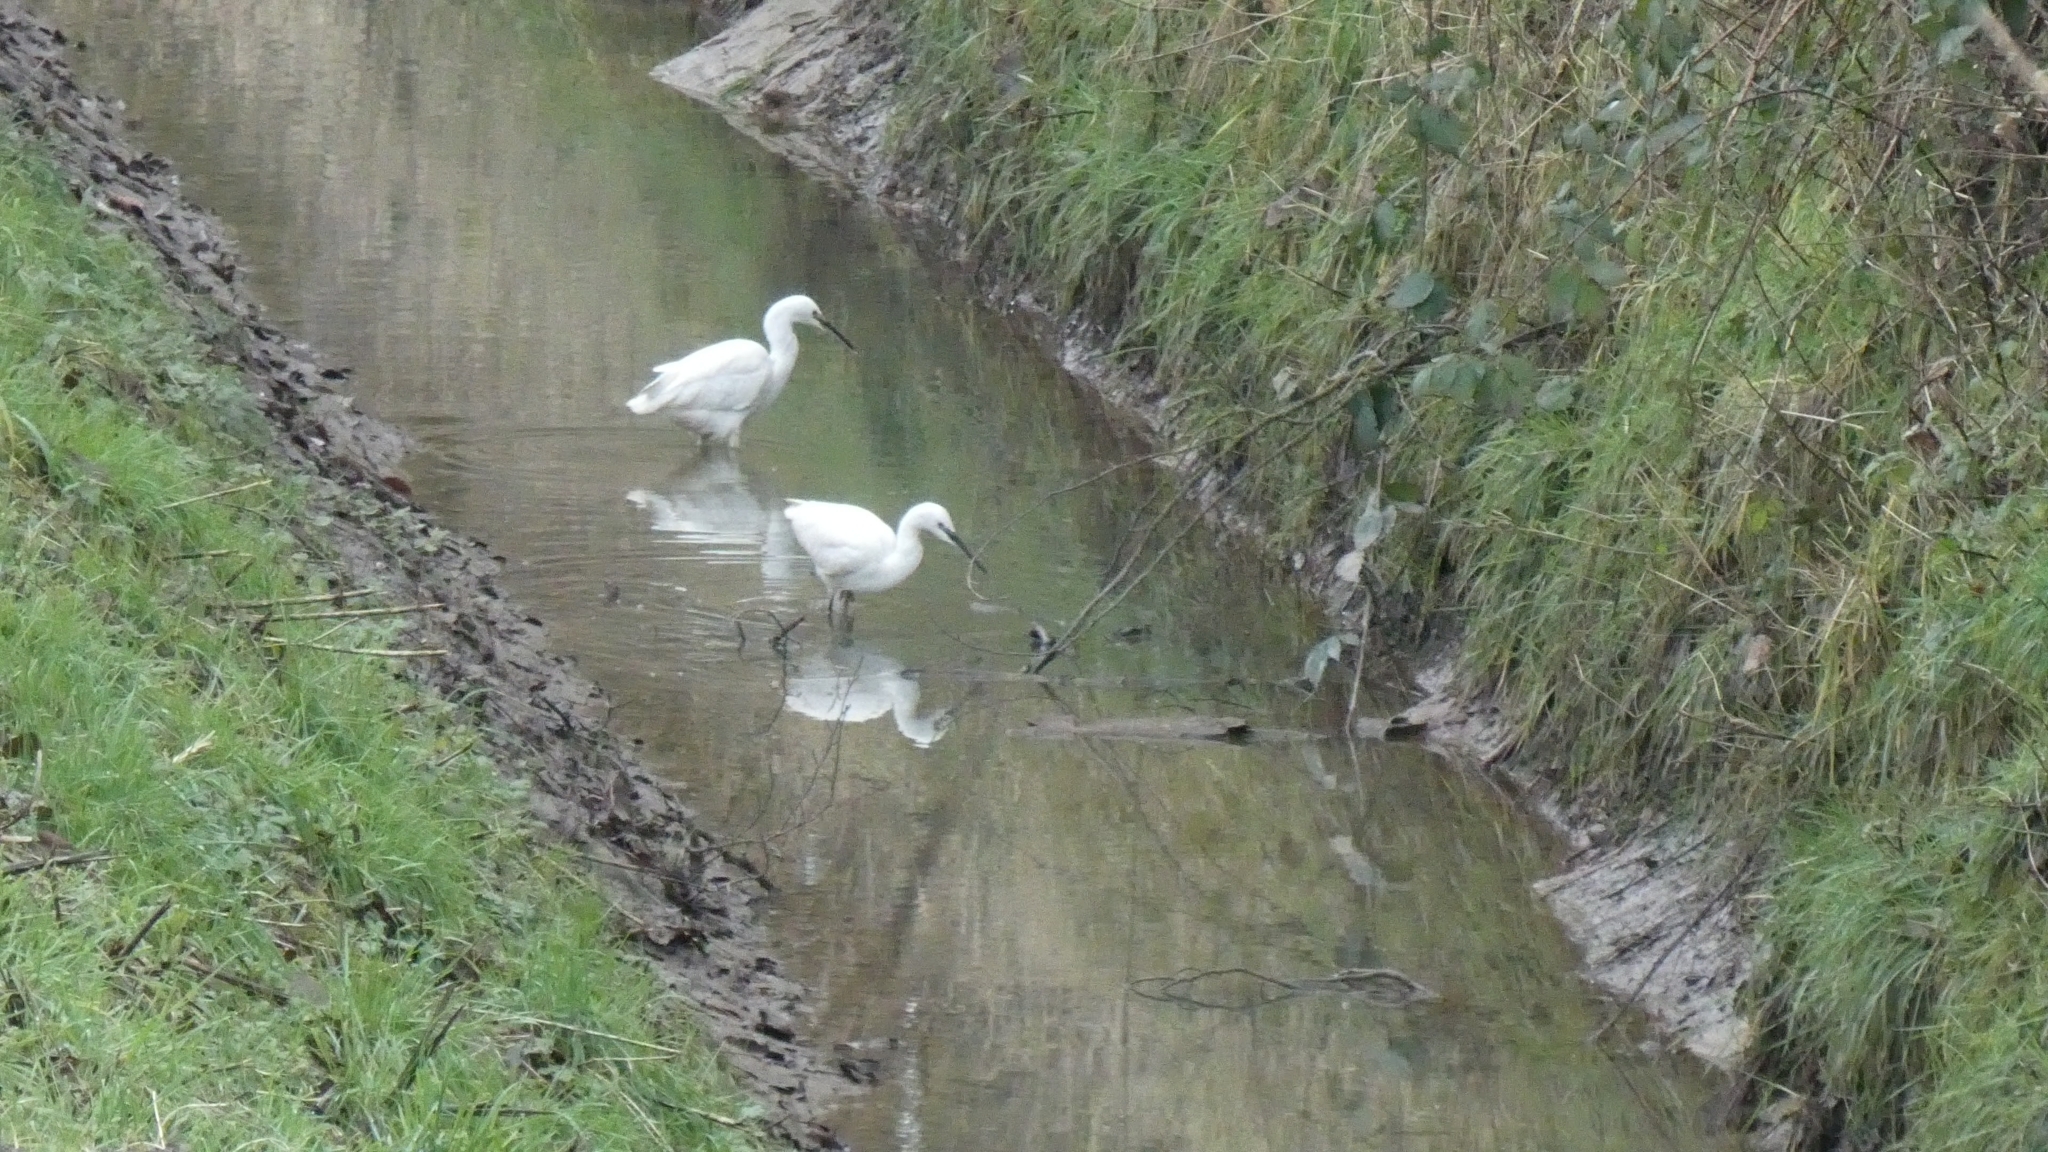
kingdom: Animalia
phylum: Chordata
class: Aves
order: Pelecaniformes
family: Ardeidae
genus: Egretta
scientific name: Egretta garzetta
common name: Little egret
